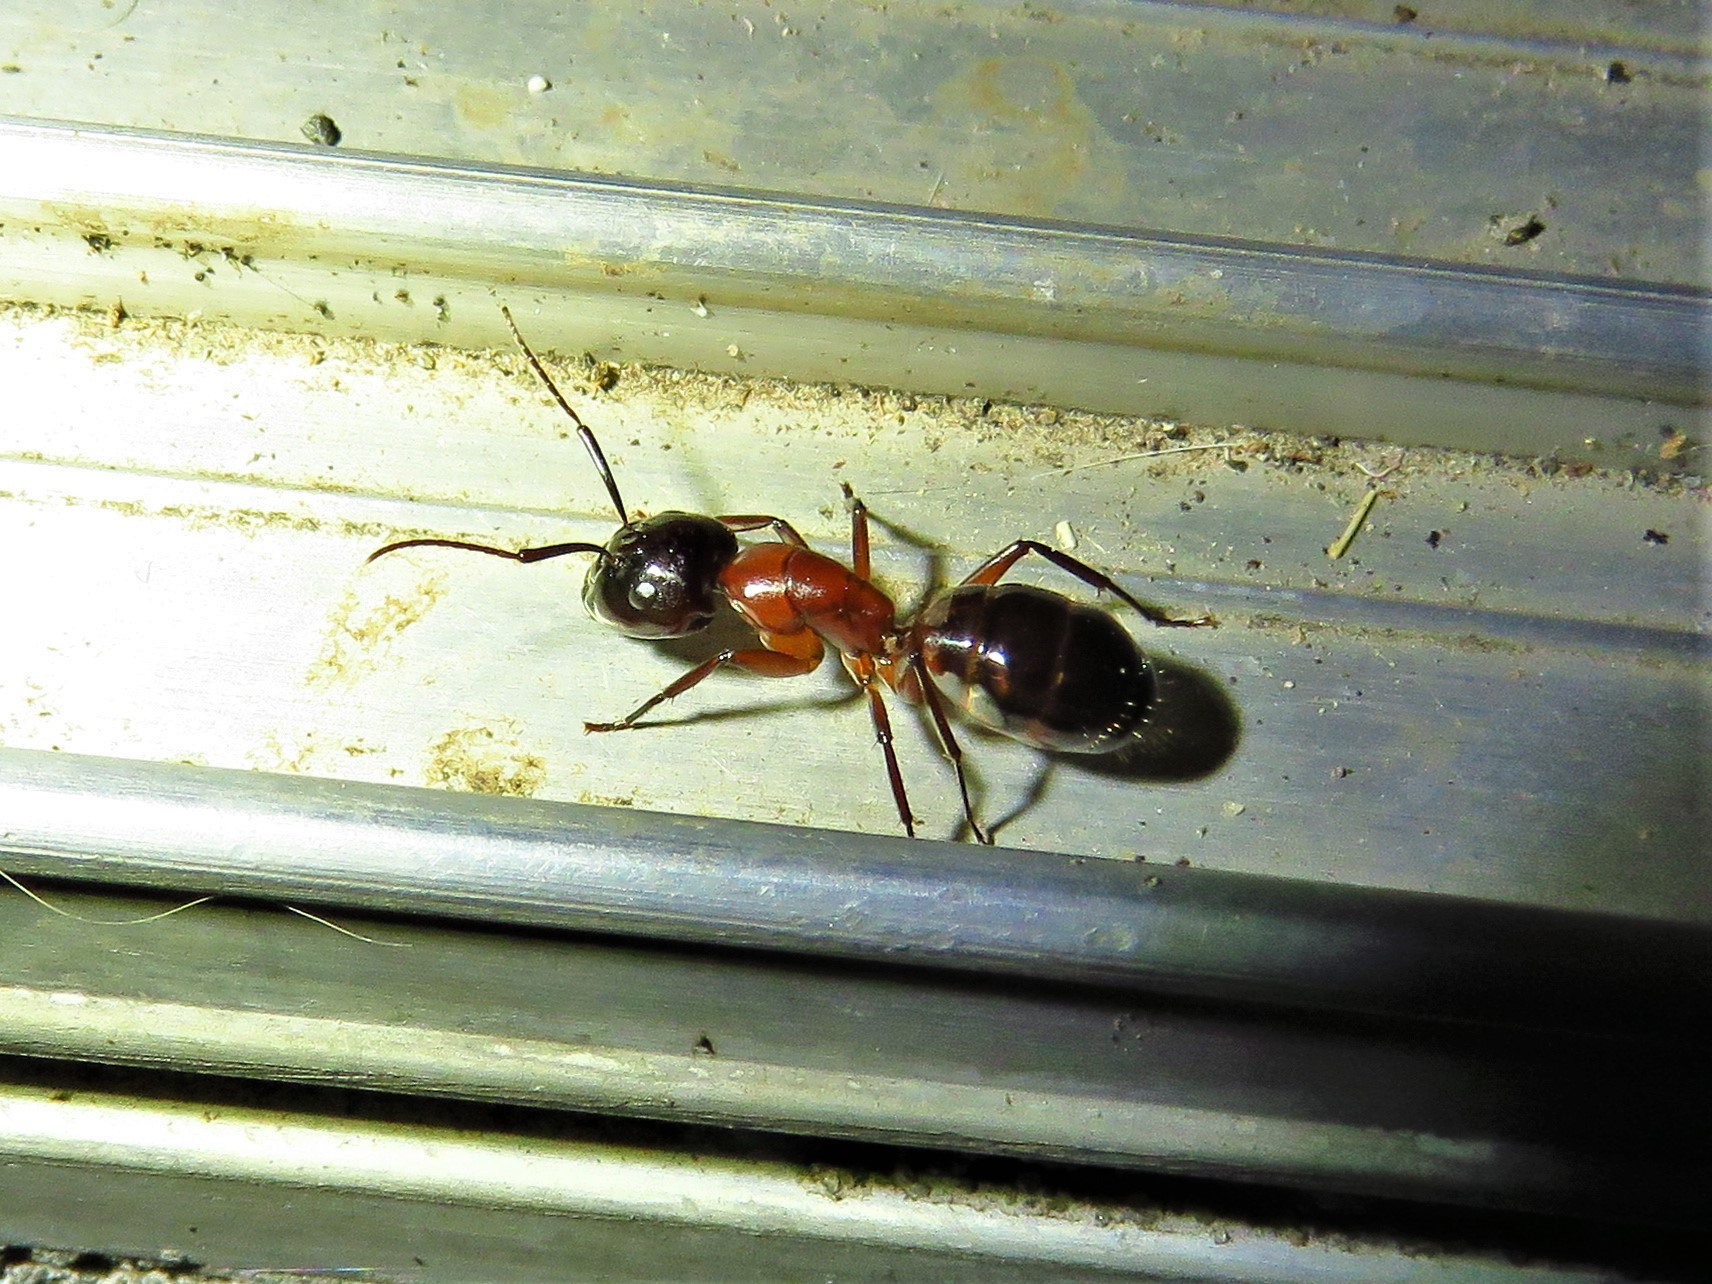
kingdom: Animalia
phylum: Arthropoda
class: Insecta
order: Hymenoptera
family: Formicidae
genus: Camponotus
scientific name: Camponotus texanus
